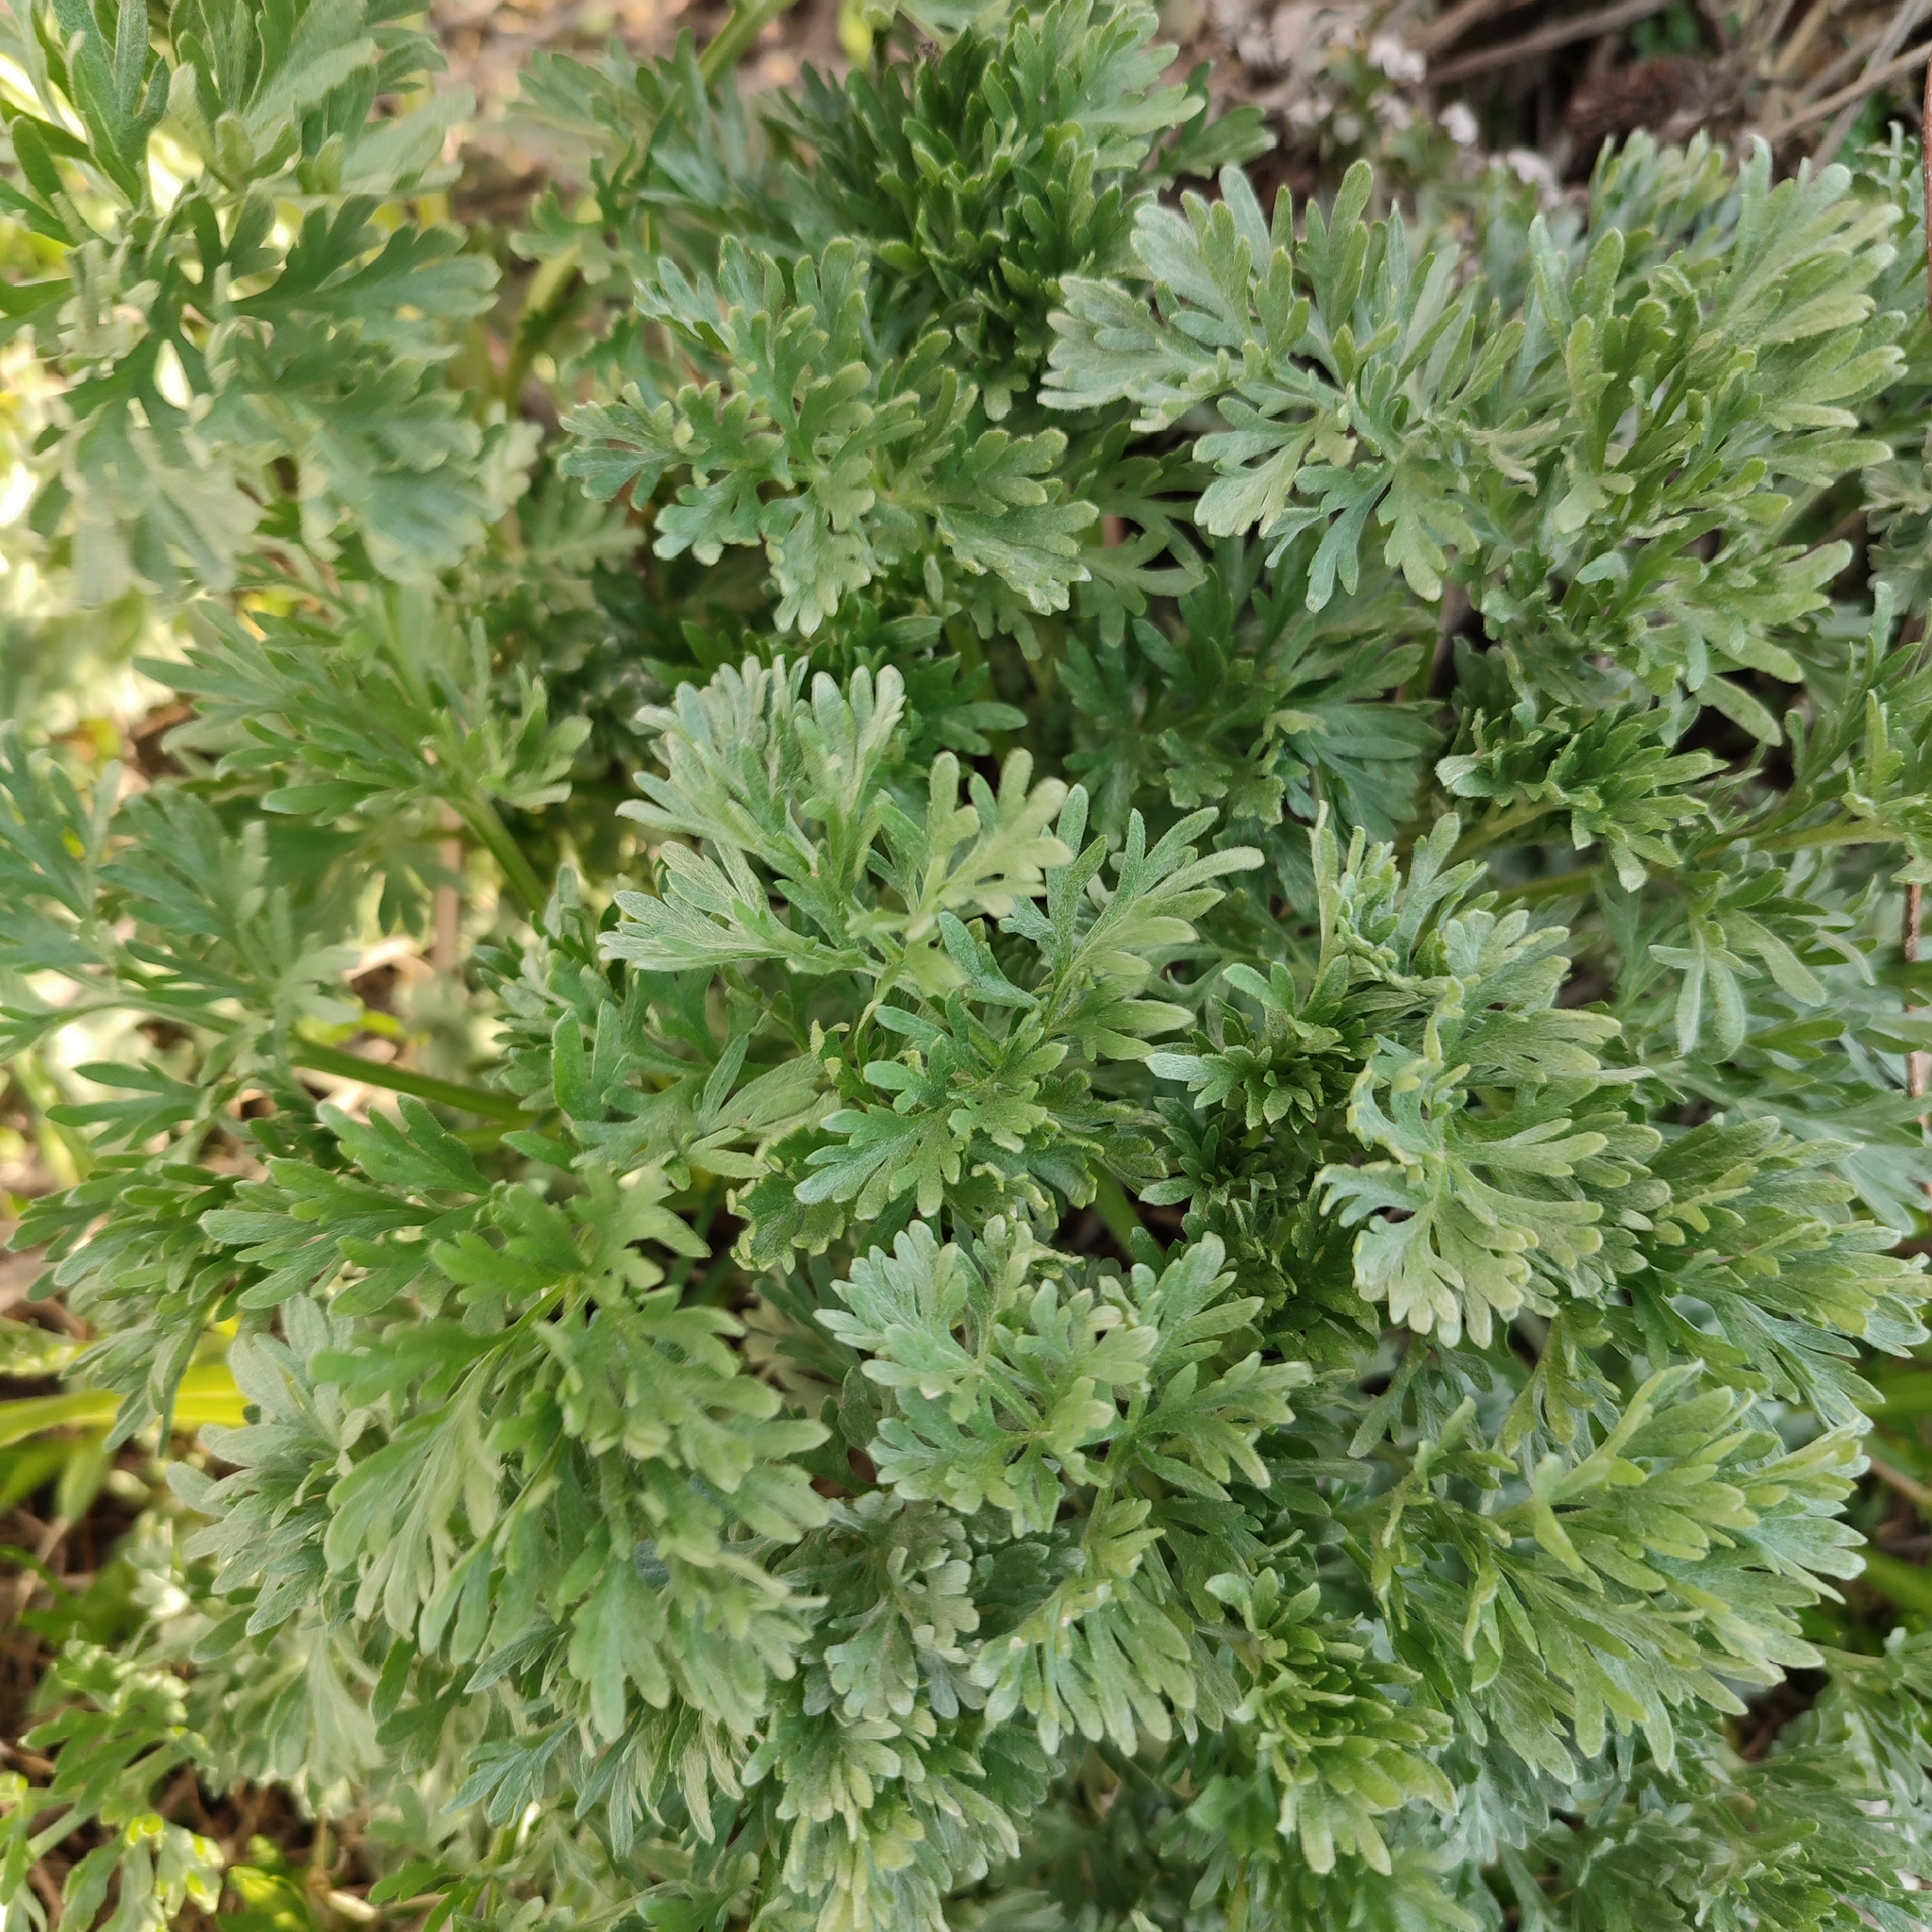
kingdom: Plantae
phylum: Tracheophyta
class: Magnoliopsida
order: Asterales
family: Asteraceae
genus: Artemisia
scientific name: Artemisia absinthium
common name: Wormwood
